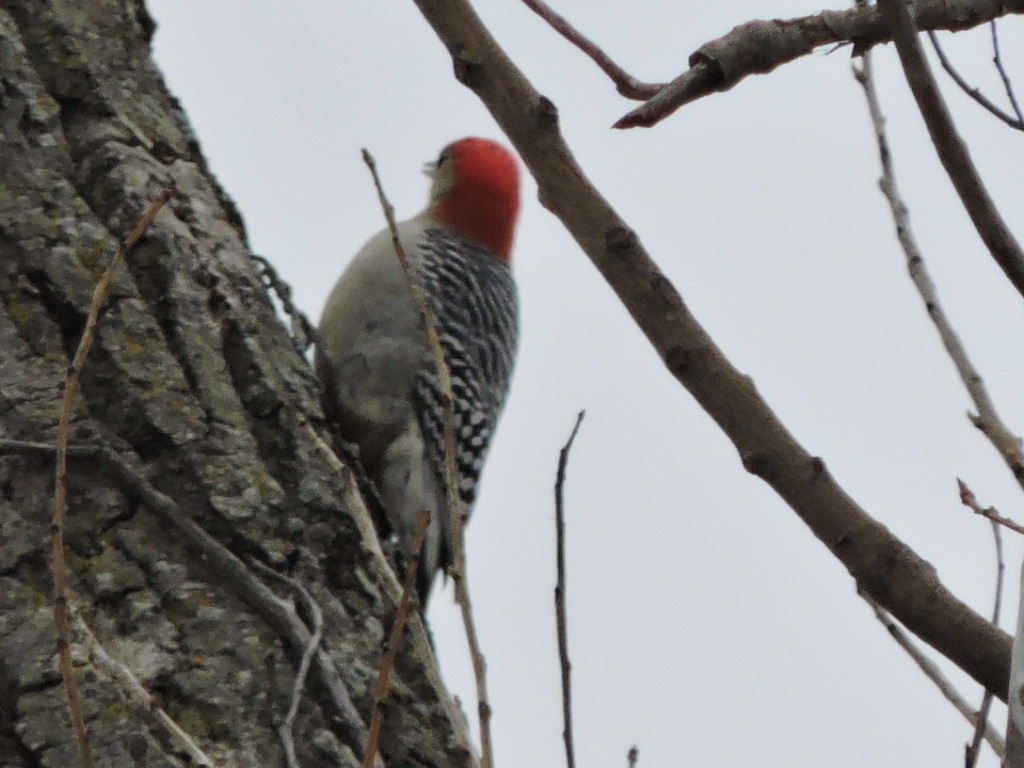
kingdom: Animalia
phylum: Chordata
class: Aves
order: Piciformes
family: Picidae
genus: Melanerpes
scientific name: Melanerpes carolinus
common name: Red-bellied woodpecker
